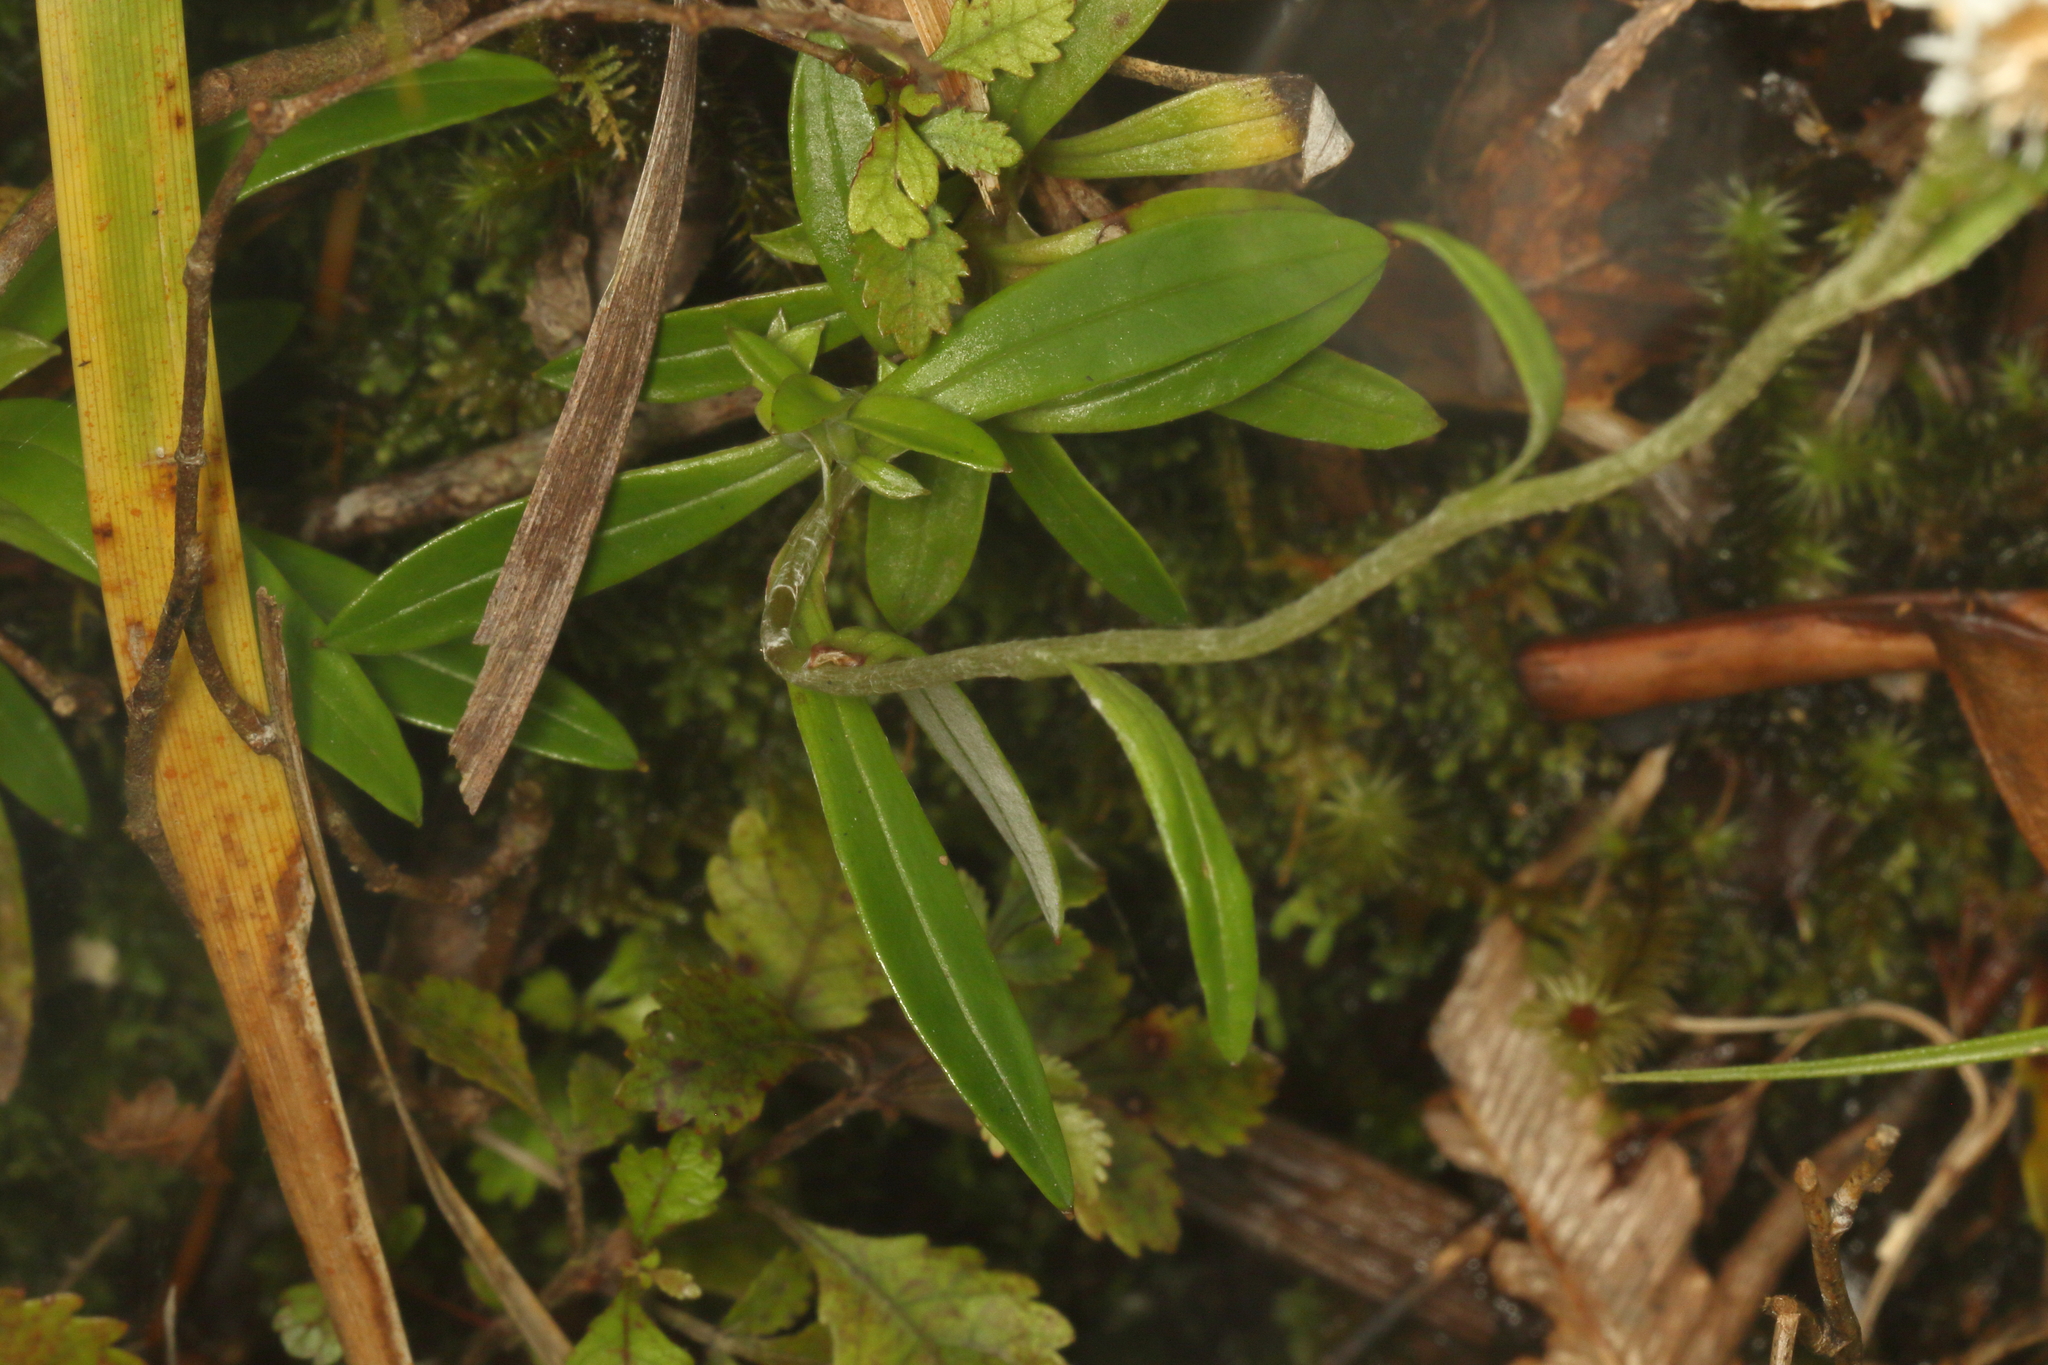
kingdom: Plantae
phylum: Tracheophyta
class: Magnoliopsida
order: Asterales
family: Asteraceae
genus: Anaphalioides
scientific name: Anaphalioides trinervis
